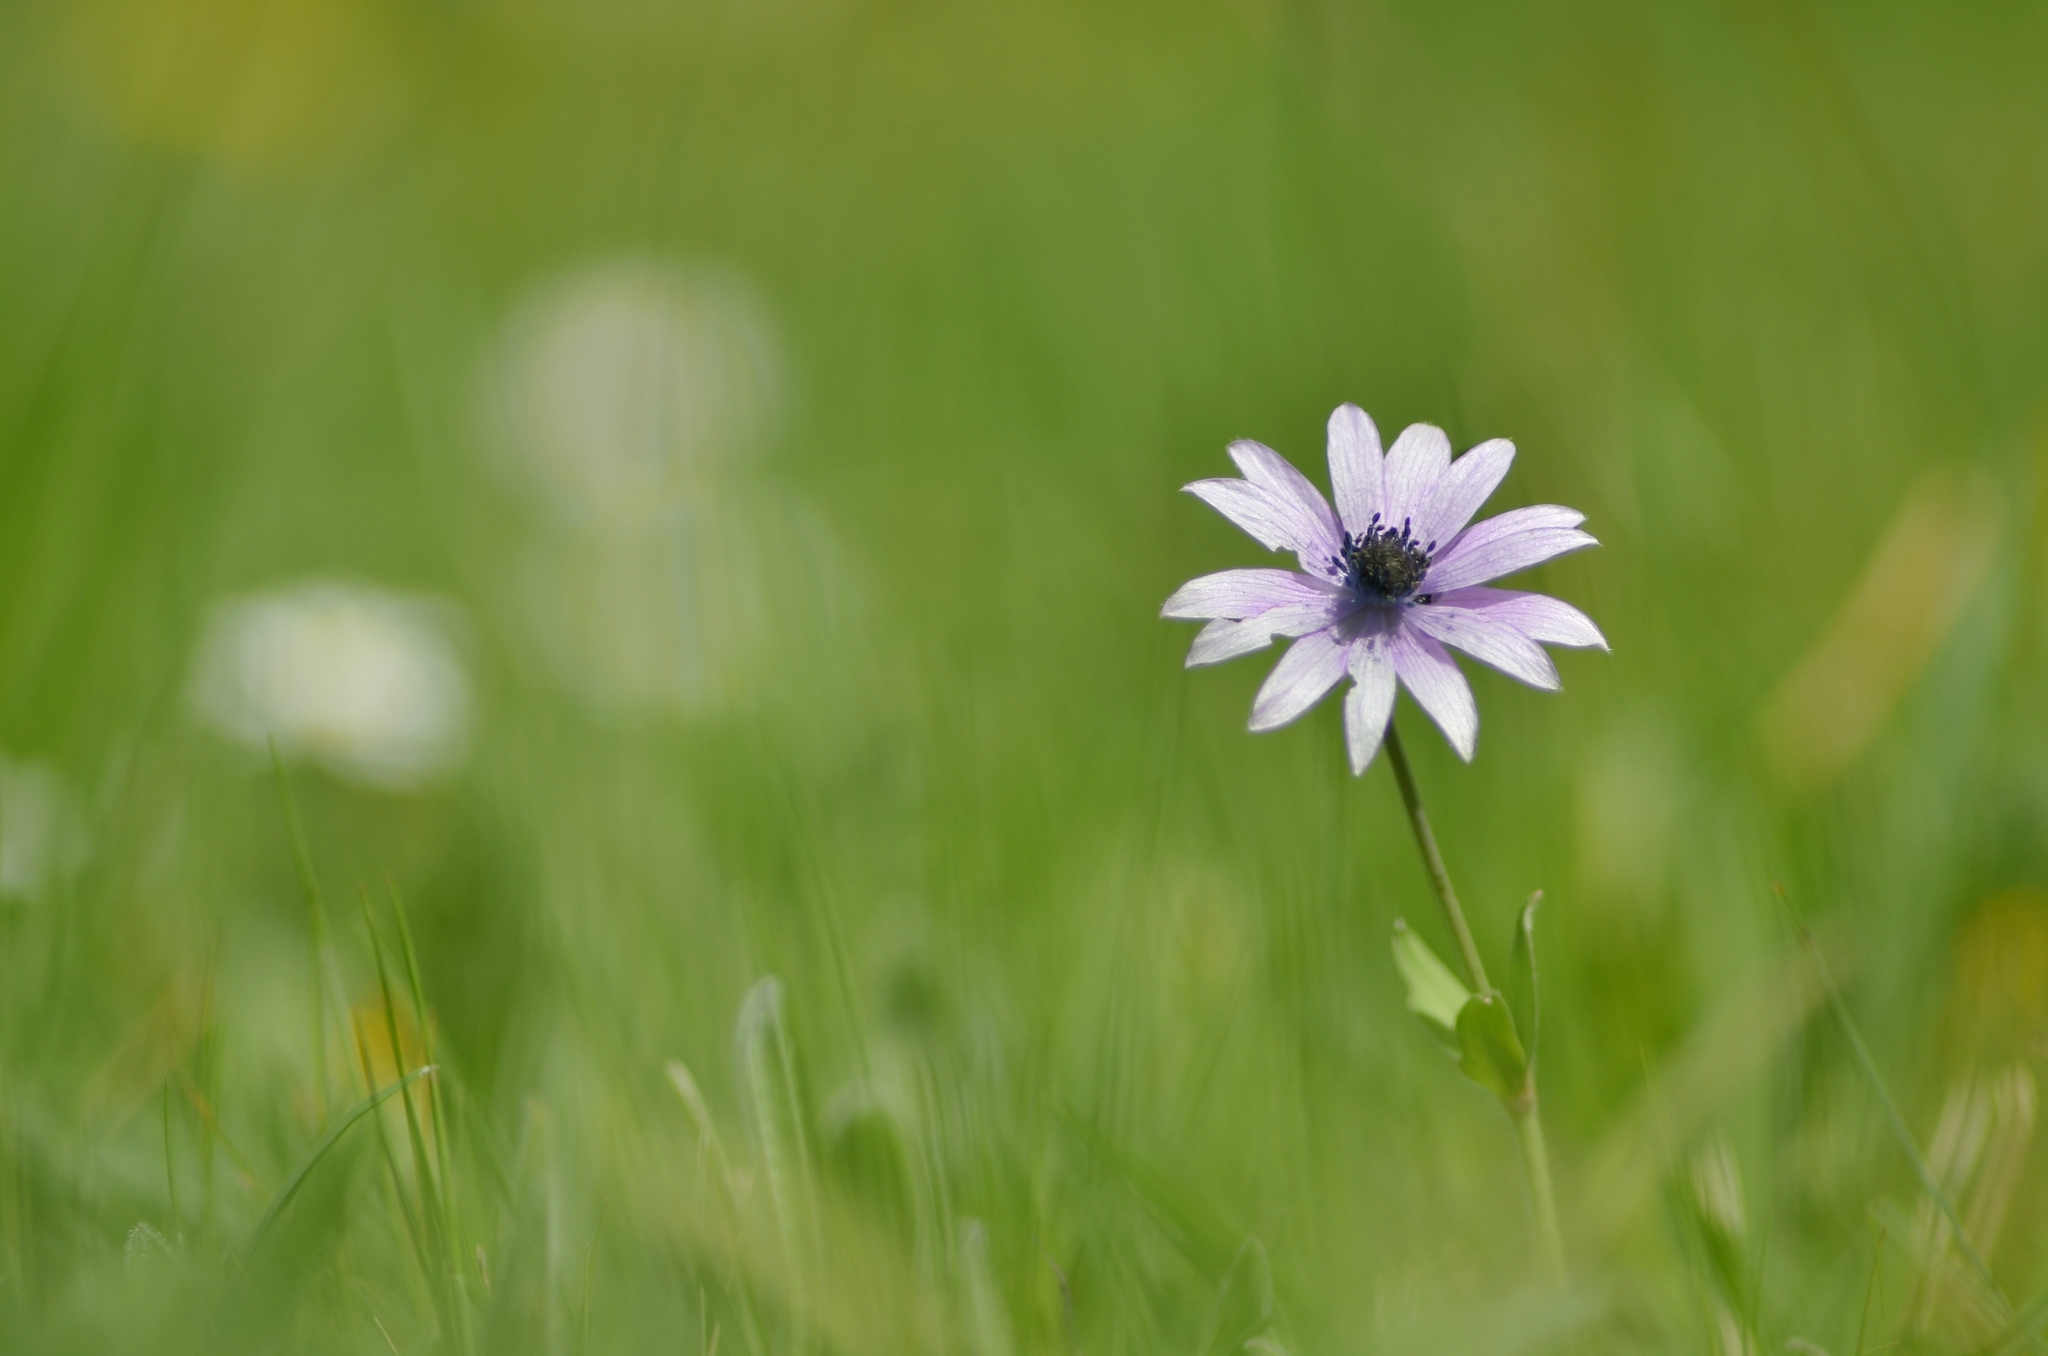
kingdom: Plantae
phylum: Tracheophyta
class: Magnoliopsida
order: Ranunculales
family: Ranunculaceae
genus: Anemone
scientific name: Anemone hortensis
